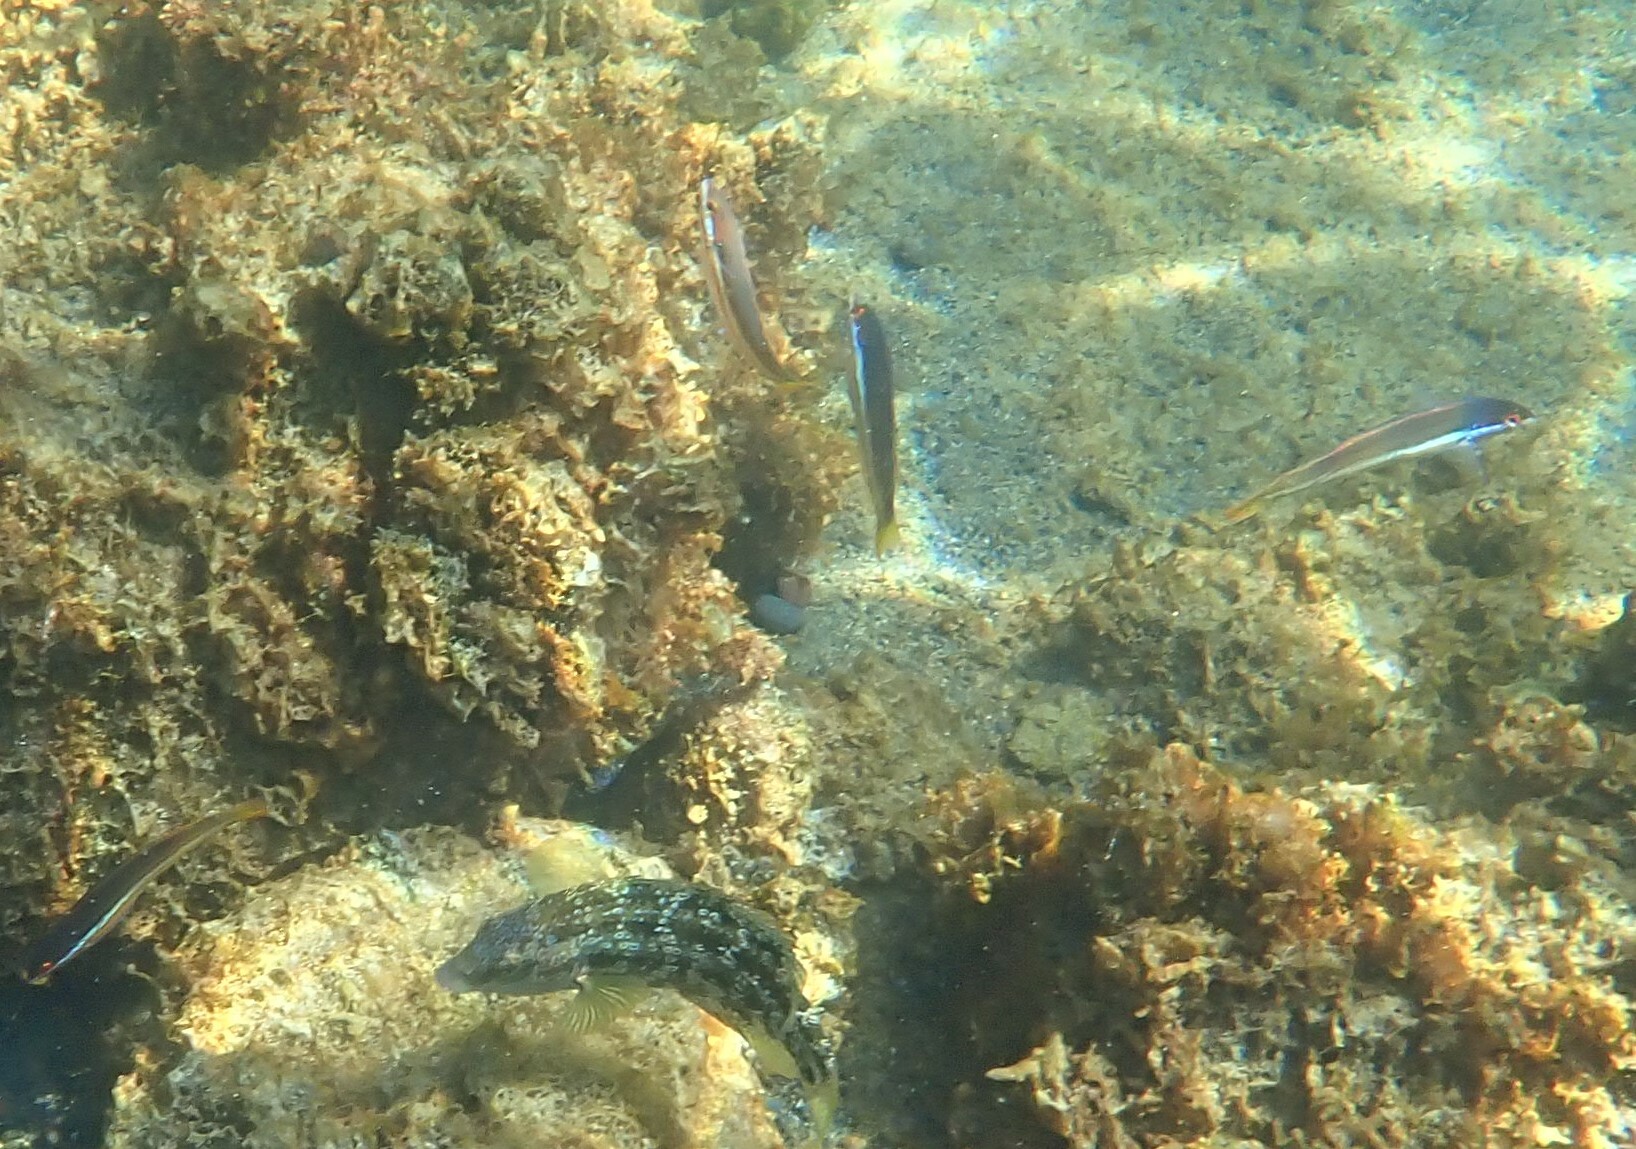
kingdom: Animalia
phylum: Chordata
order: Perciformes
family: Labridae
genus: Symphodus
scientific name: Symphodus caeruleus
